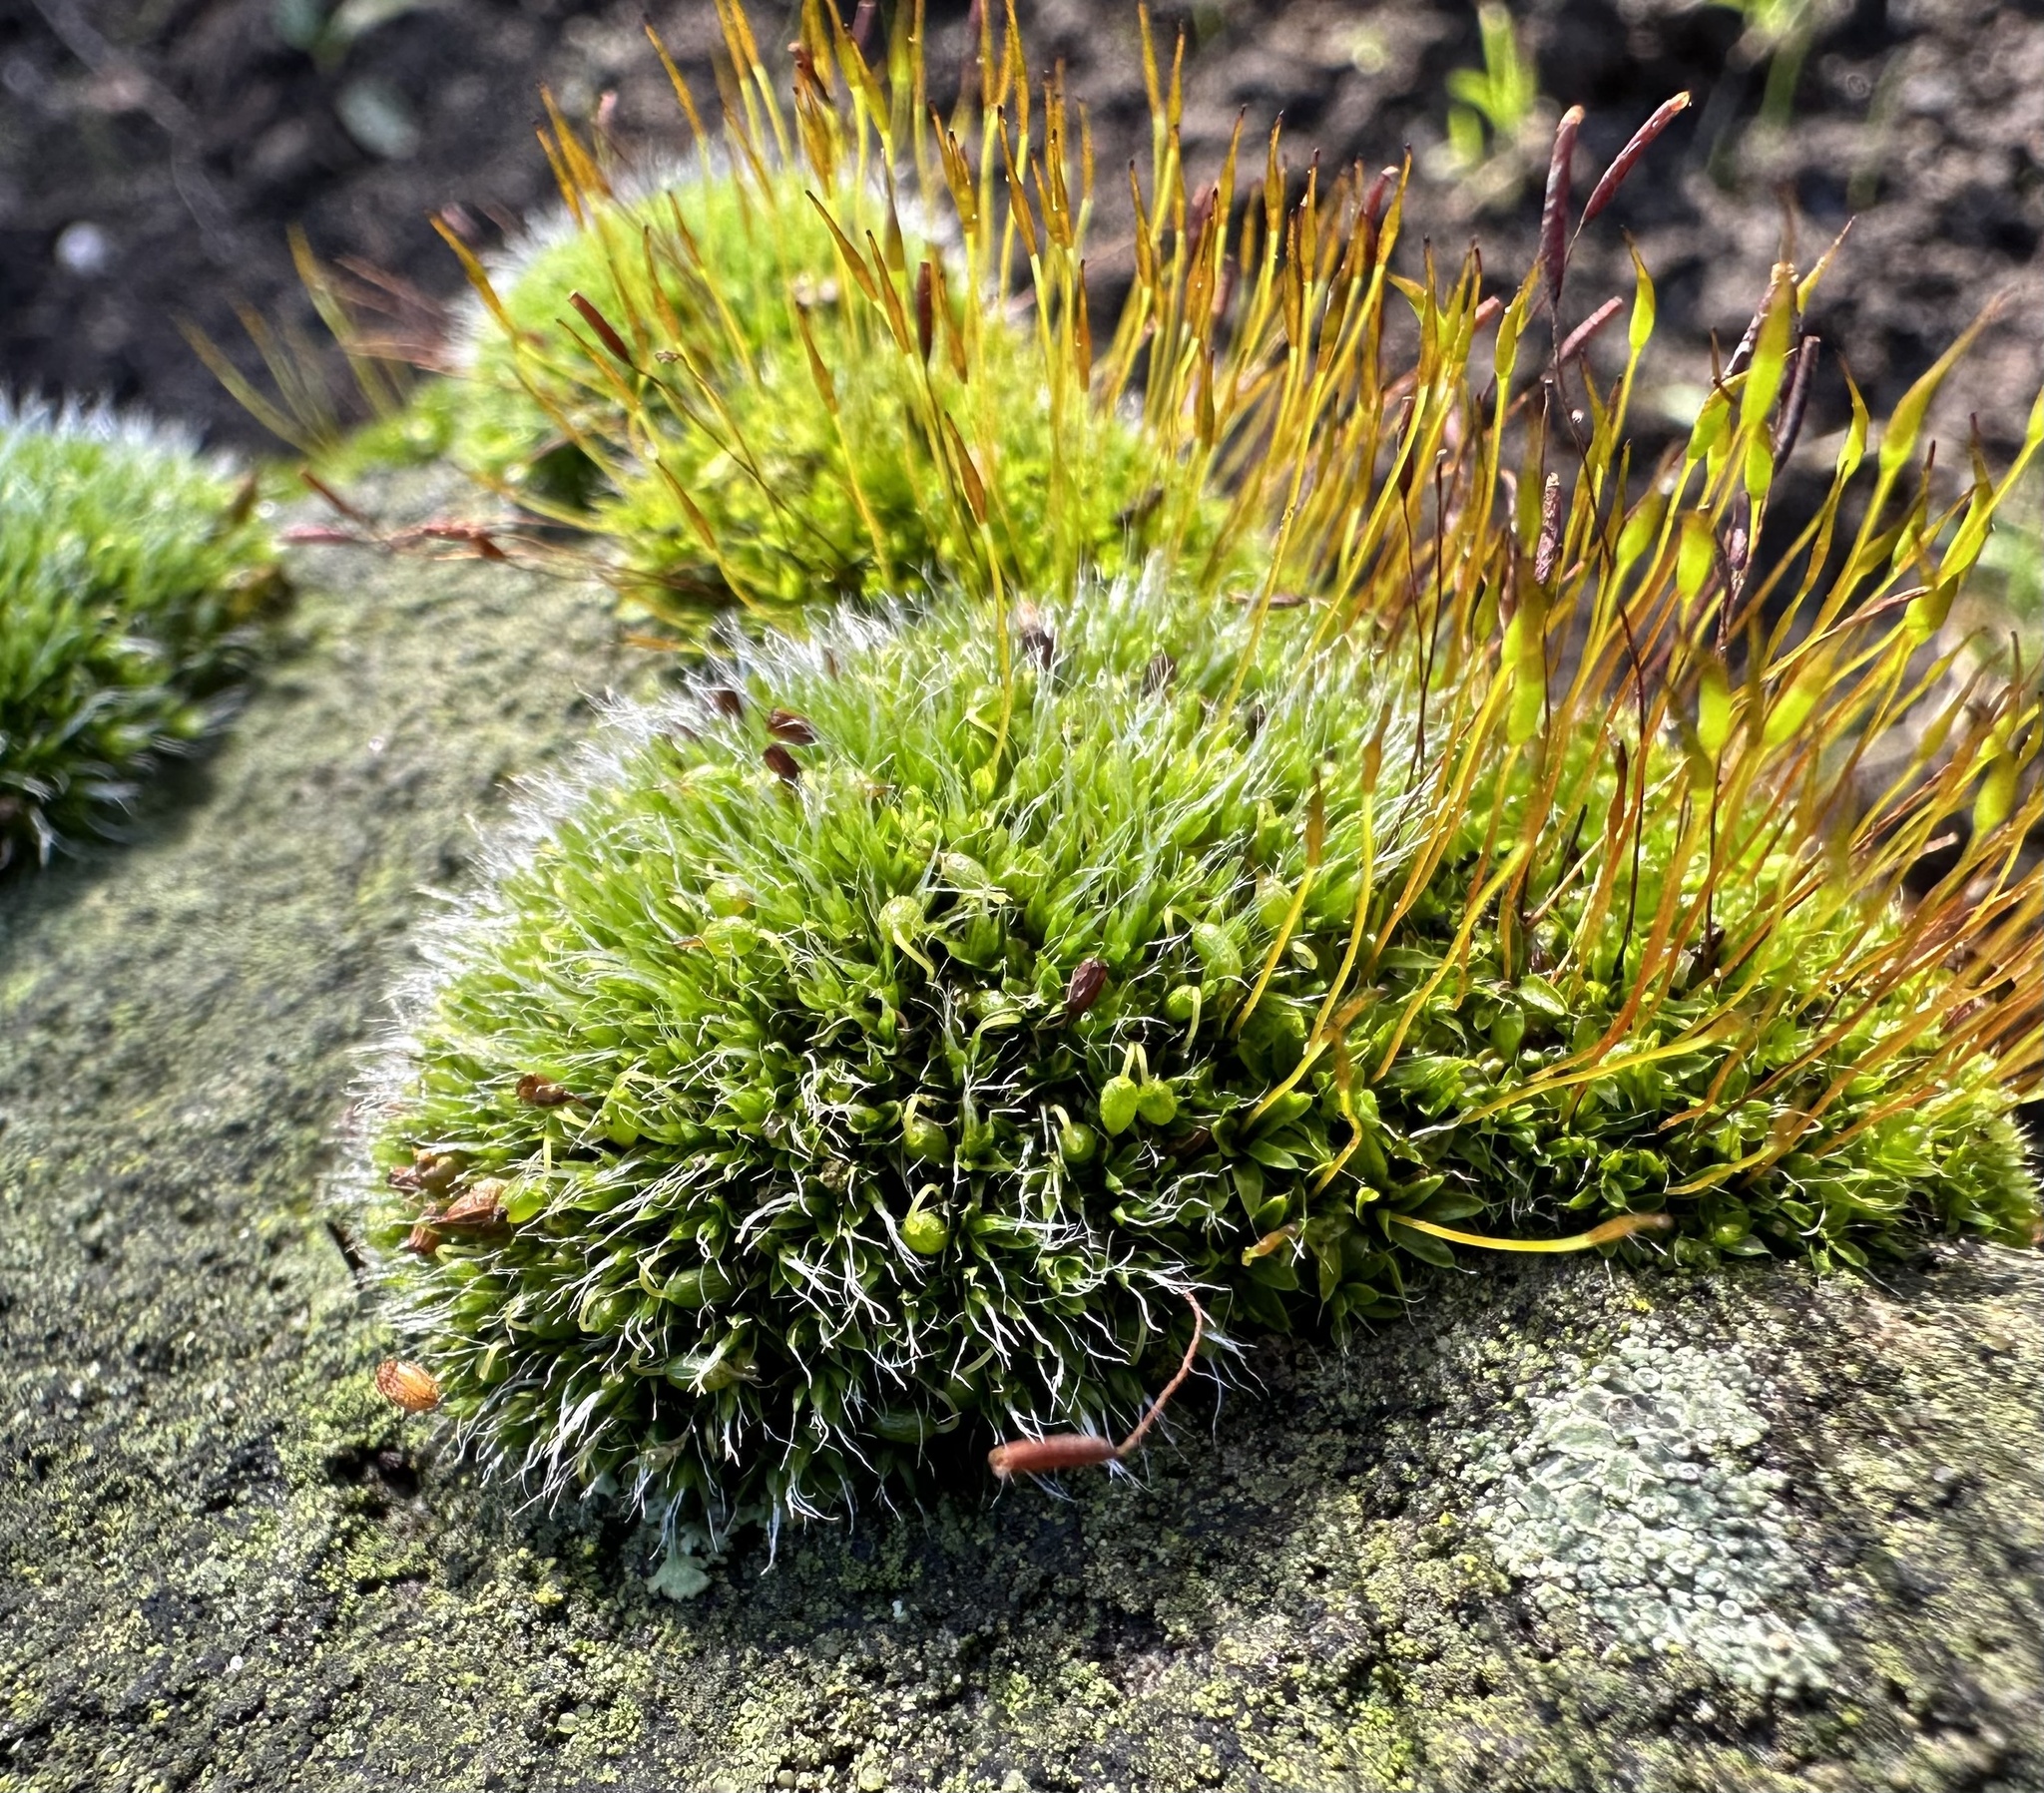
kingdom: Plantae
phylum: Bryophyta
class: Bryopsida
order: Grimmiales
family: Grimmiaceae
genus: Grimmia
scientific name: Grimmia pulvinata
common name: Grey-cushioned grimmia
